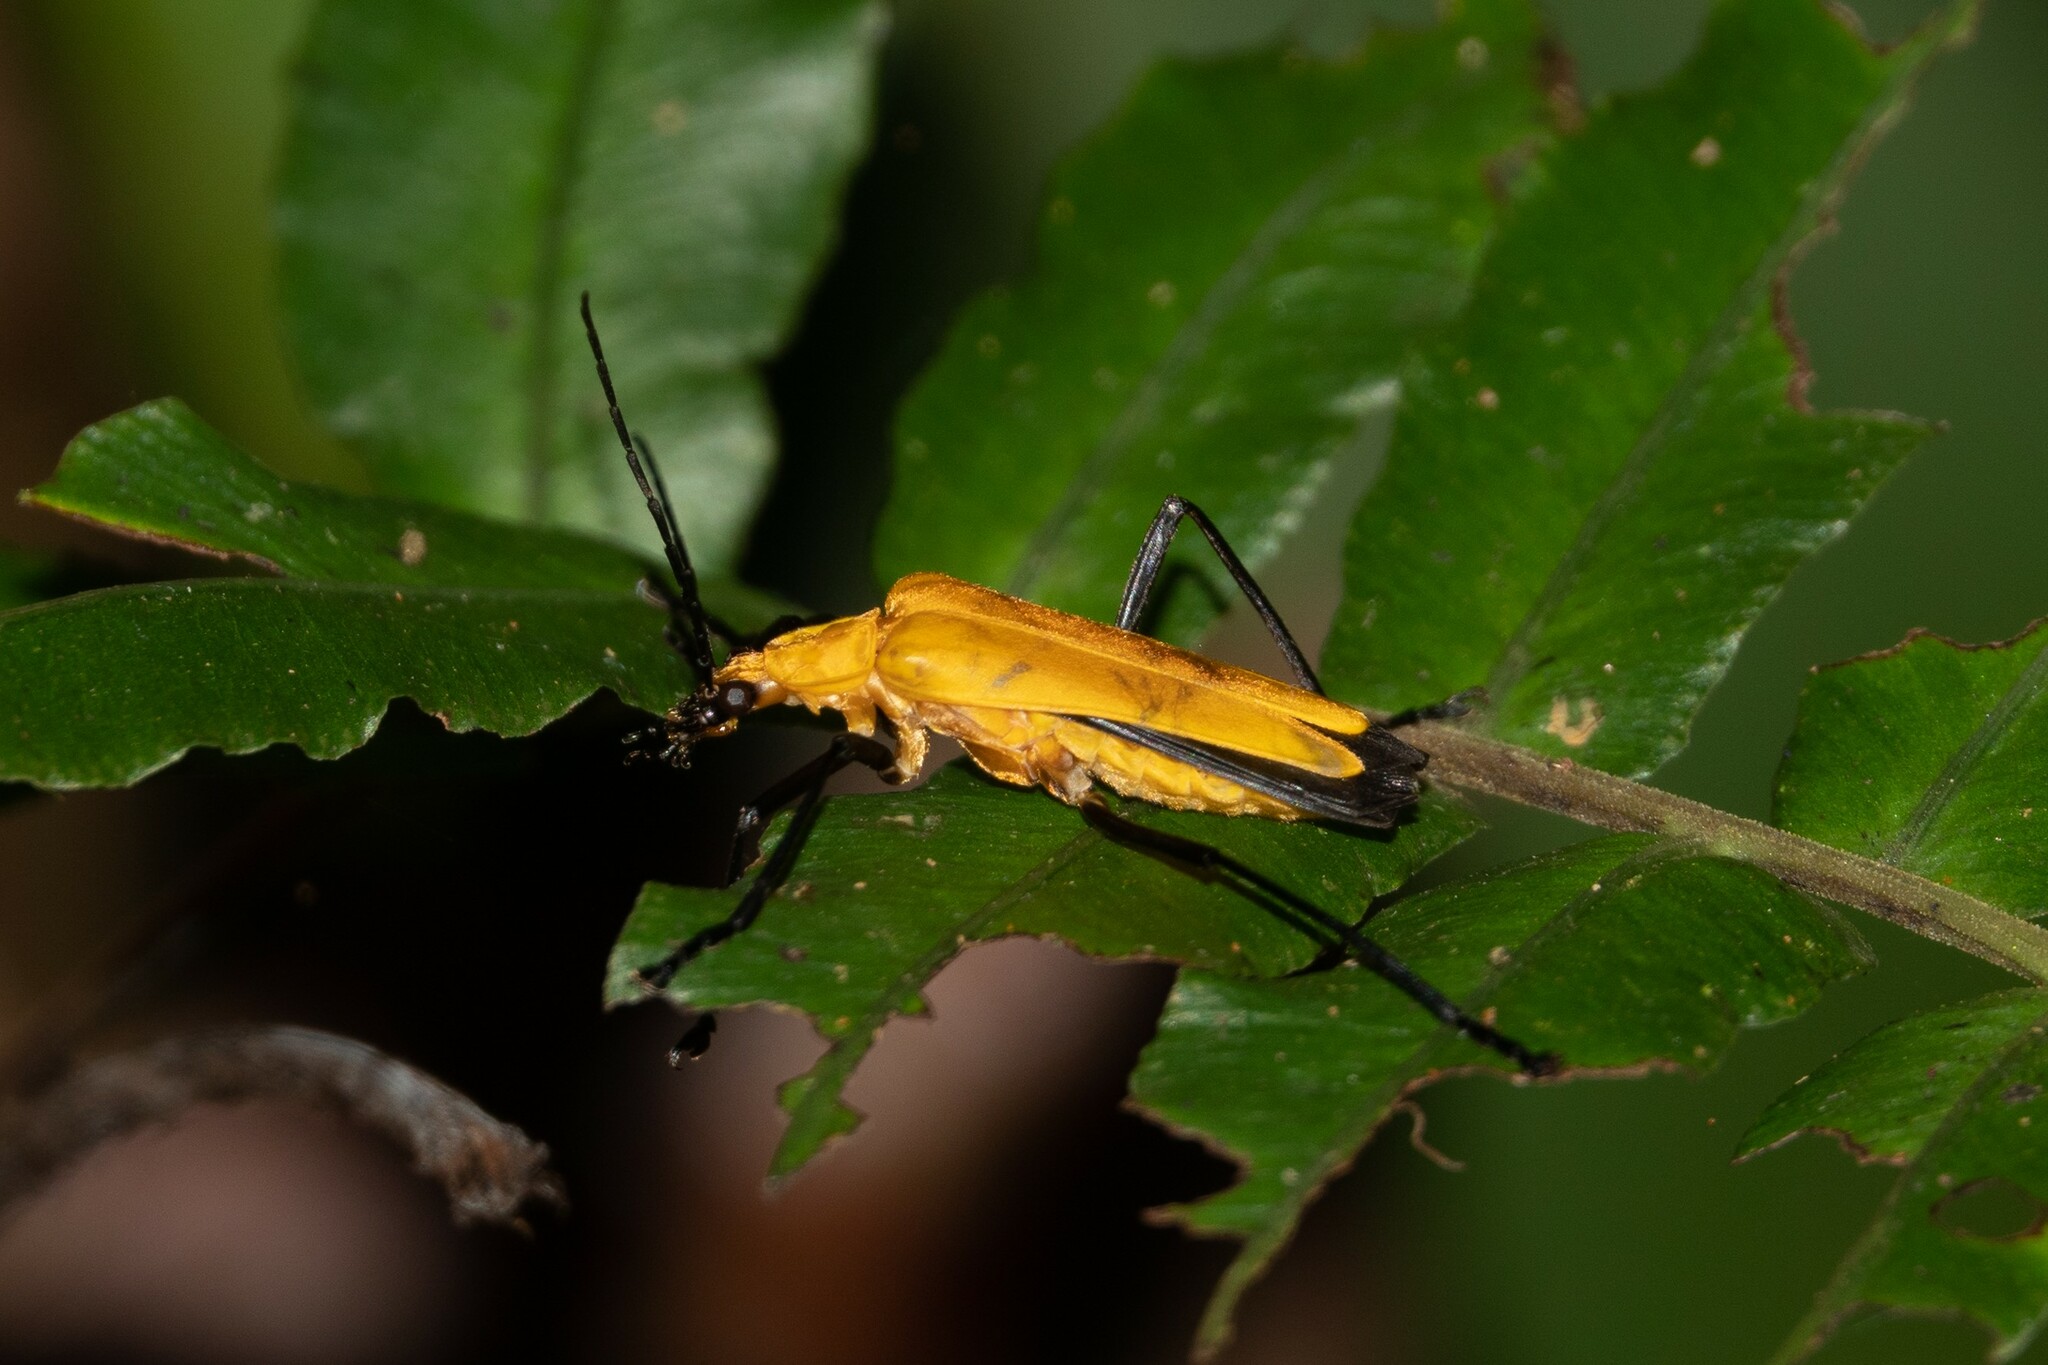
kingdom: Animalia
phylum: Arthropoda
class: Insecta
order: Coleoptera
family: Cantharidae
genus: Chauliognathus
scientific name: Chauliognathus sulphureus
